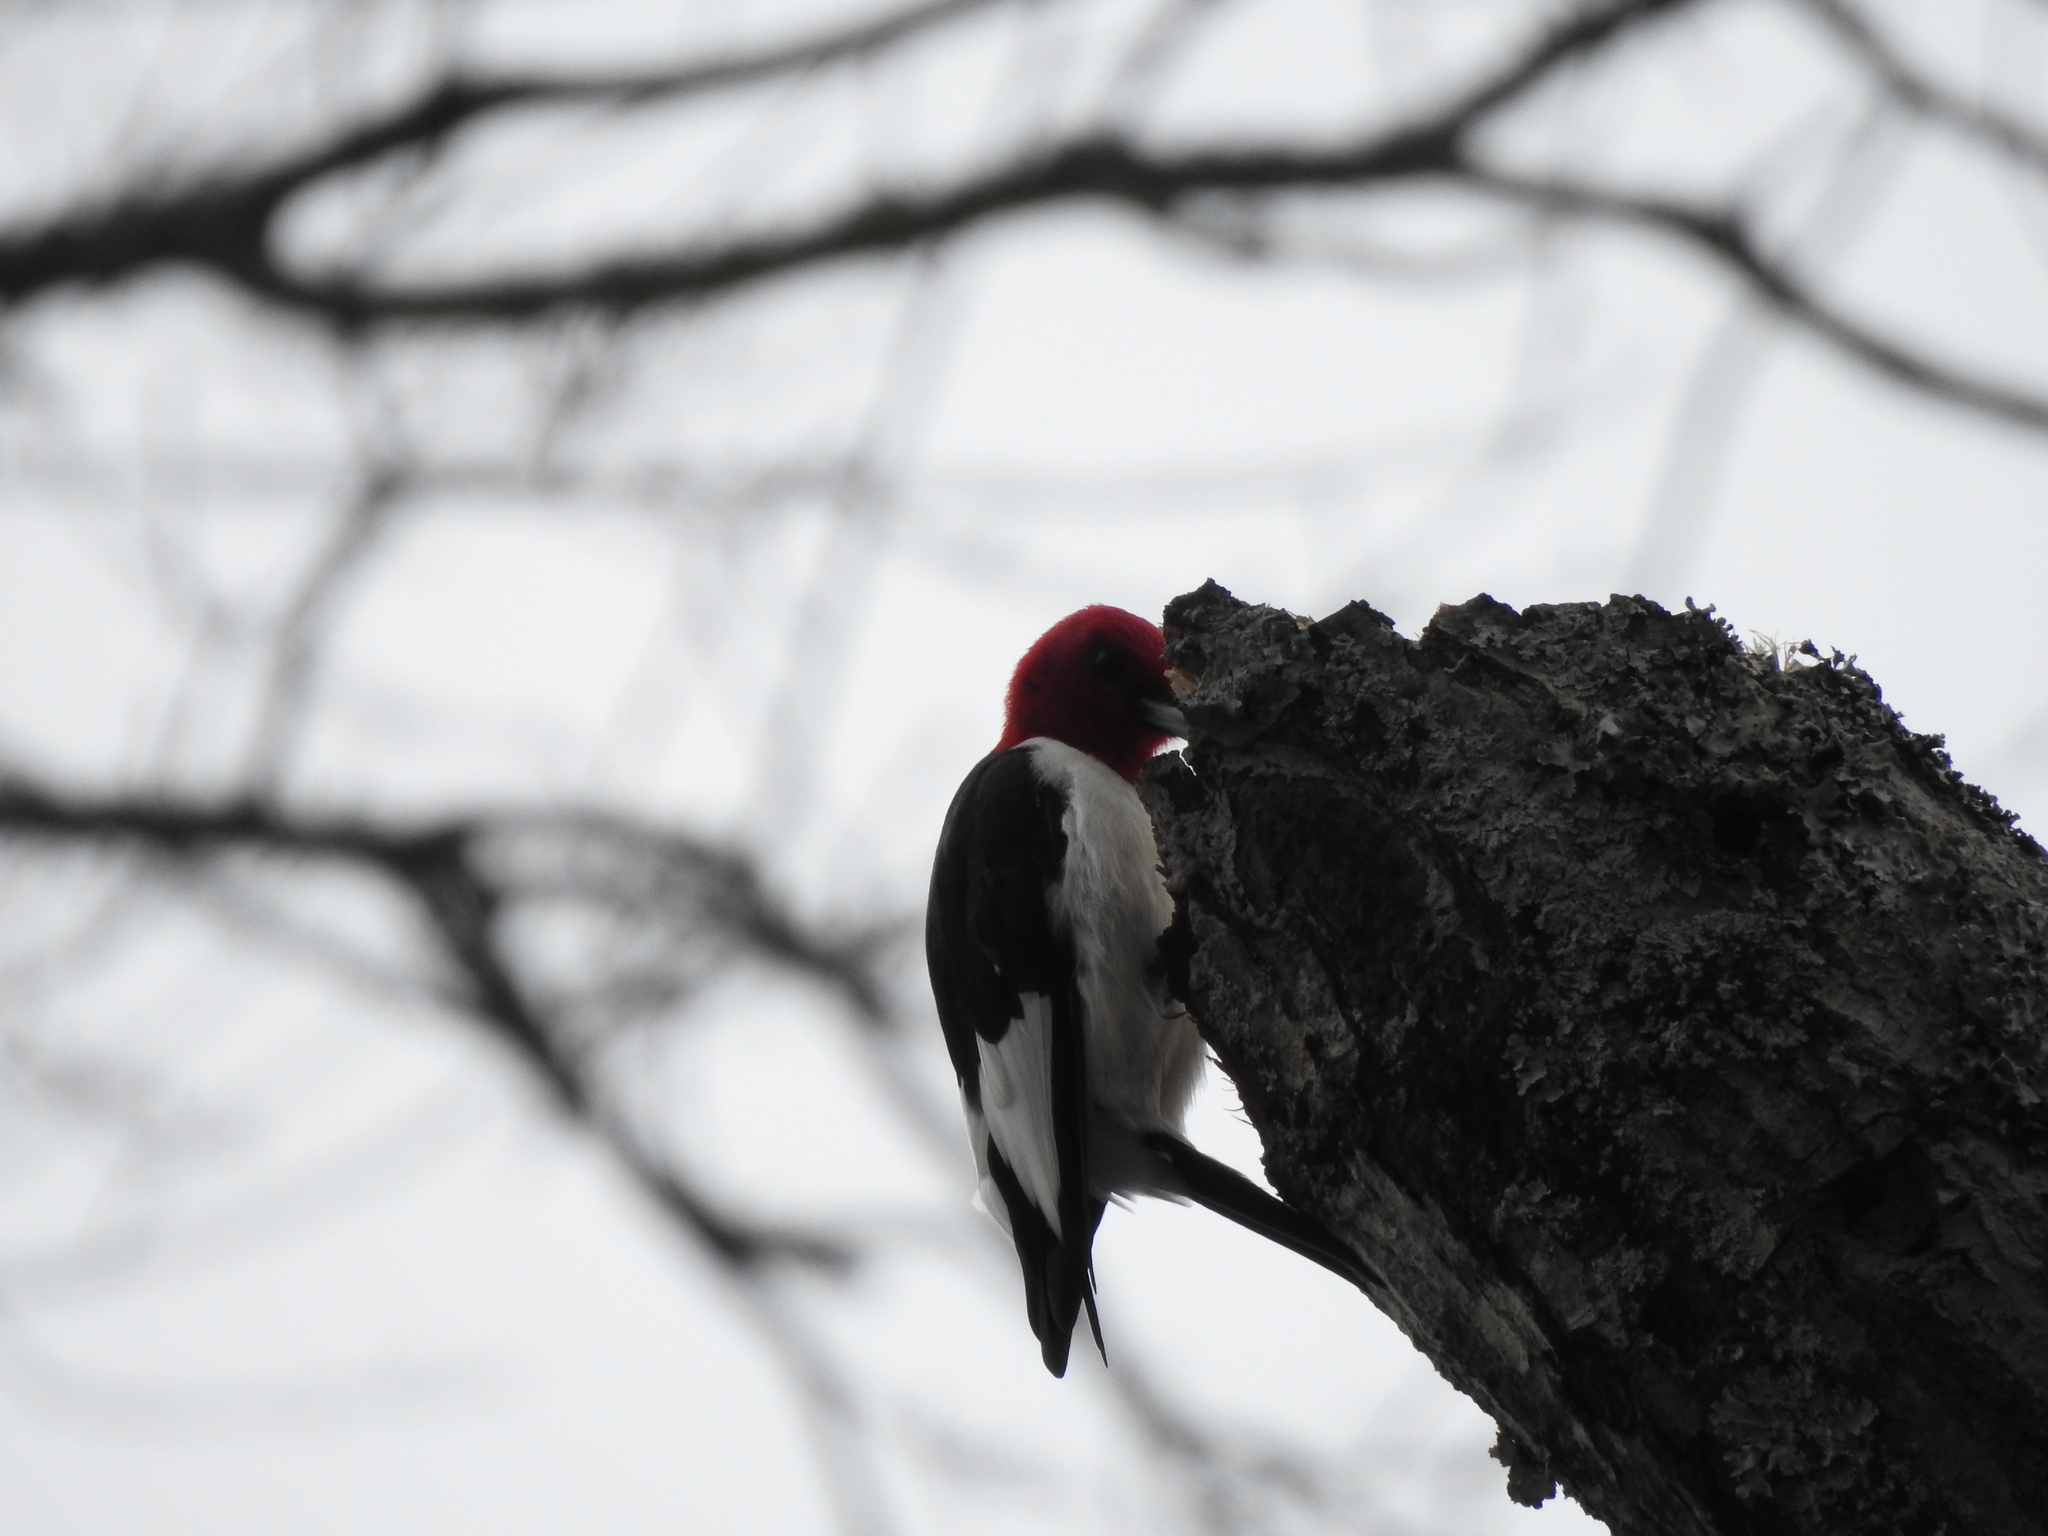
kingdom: Animalia
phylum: Chordata
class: Aves
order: Piciformes
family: Picidae
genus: Melanerpes
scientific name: Melanerpes erythrocephalus
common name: Red-headed woodpecker
